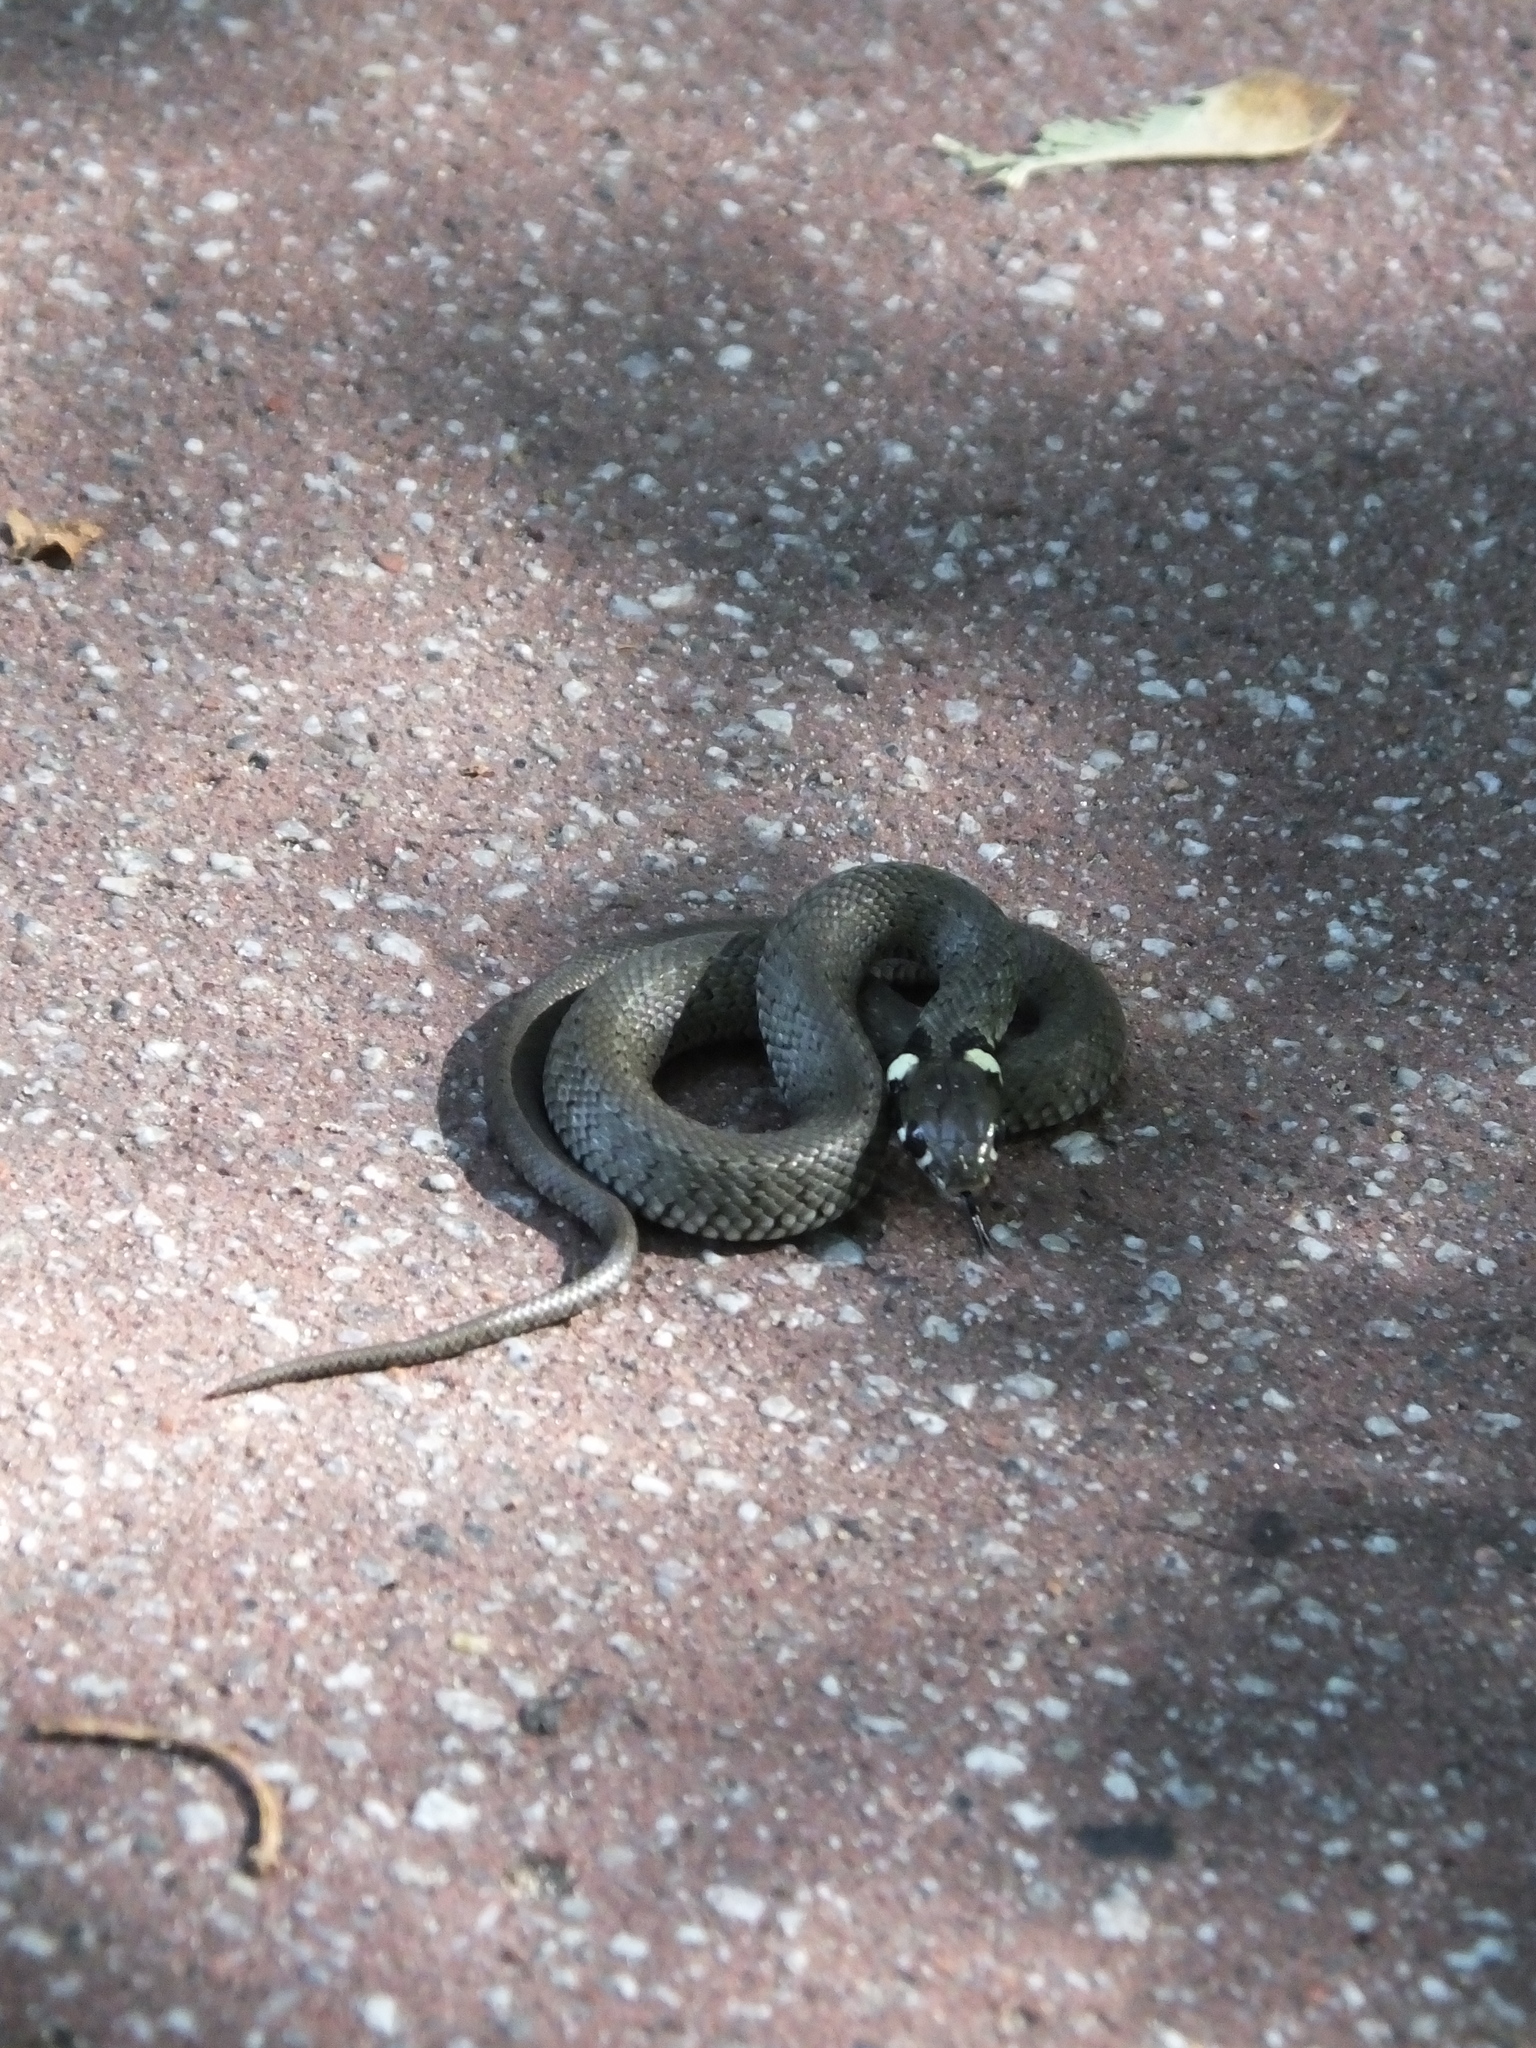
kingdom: Animalia
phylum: Chordata
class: Squamata
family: Colubridae
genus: Natrix
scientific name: Natrix natrix
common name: Grass snake
